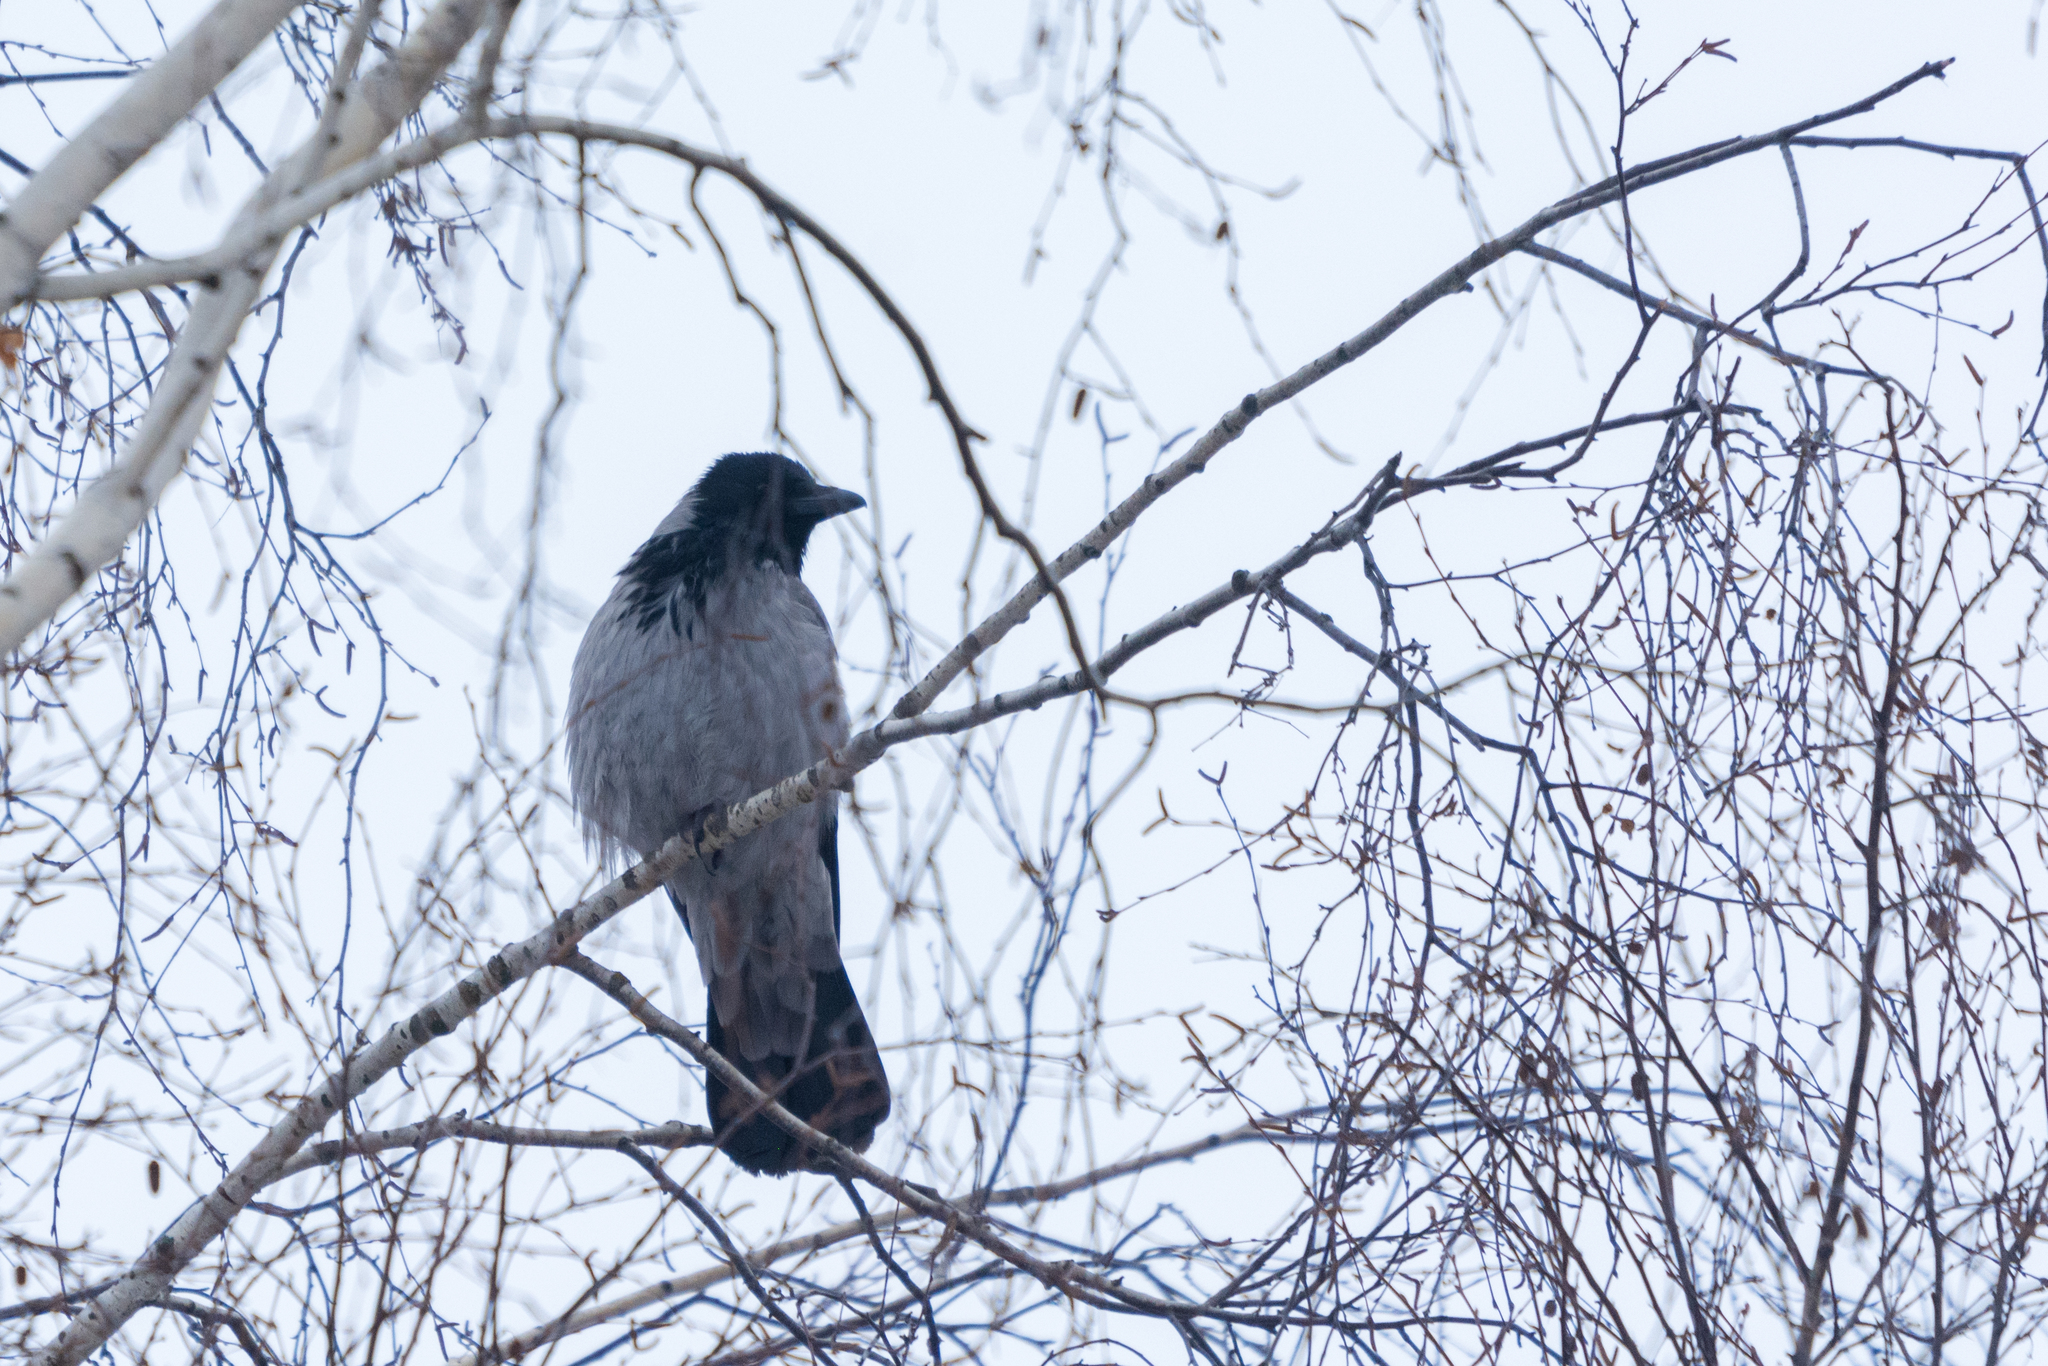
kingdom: Animalia
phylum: Chordata
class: Aves
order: Passeriformes
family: Corvidae
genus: Corvus
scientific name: Corvus cornix
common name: Hooded crow
